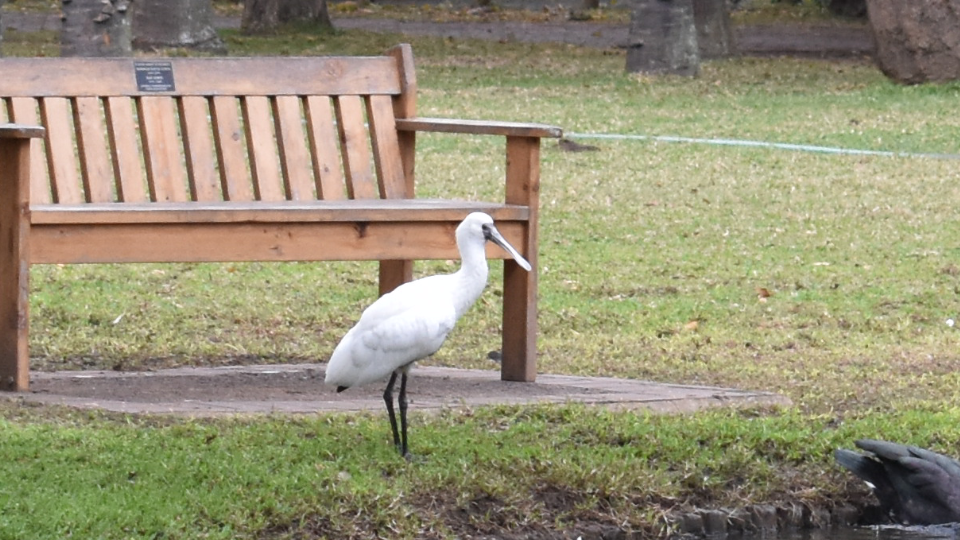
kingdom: Animalia
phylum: Chordata
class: Aves
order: Pelecaniformes
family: Threskiornithidae
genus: Platalea
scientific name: Platalea alba
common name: African spoonbill
